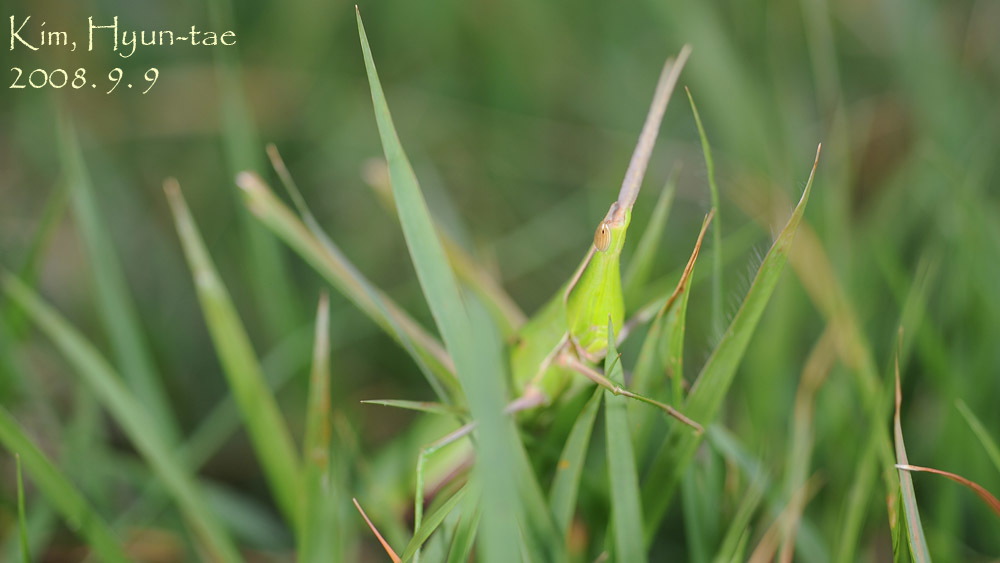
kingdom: Animalia
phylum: Arthropoda
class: Insecta
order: Orthoptera
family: Pyrgomorphidae
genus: Atractomorpha
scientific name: Atractomorpha lata
